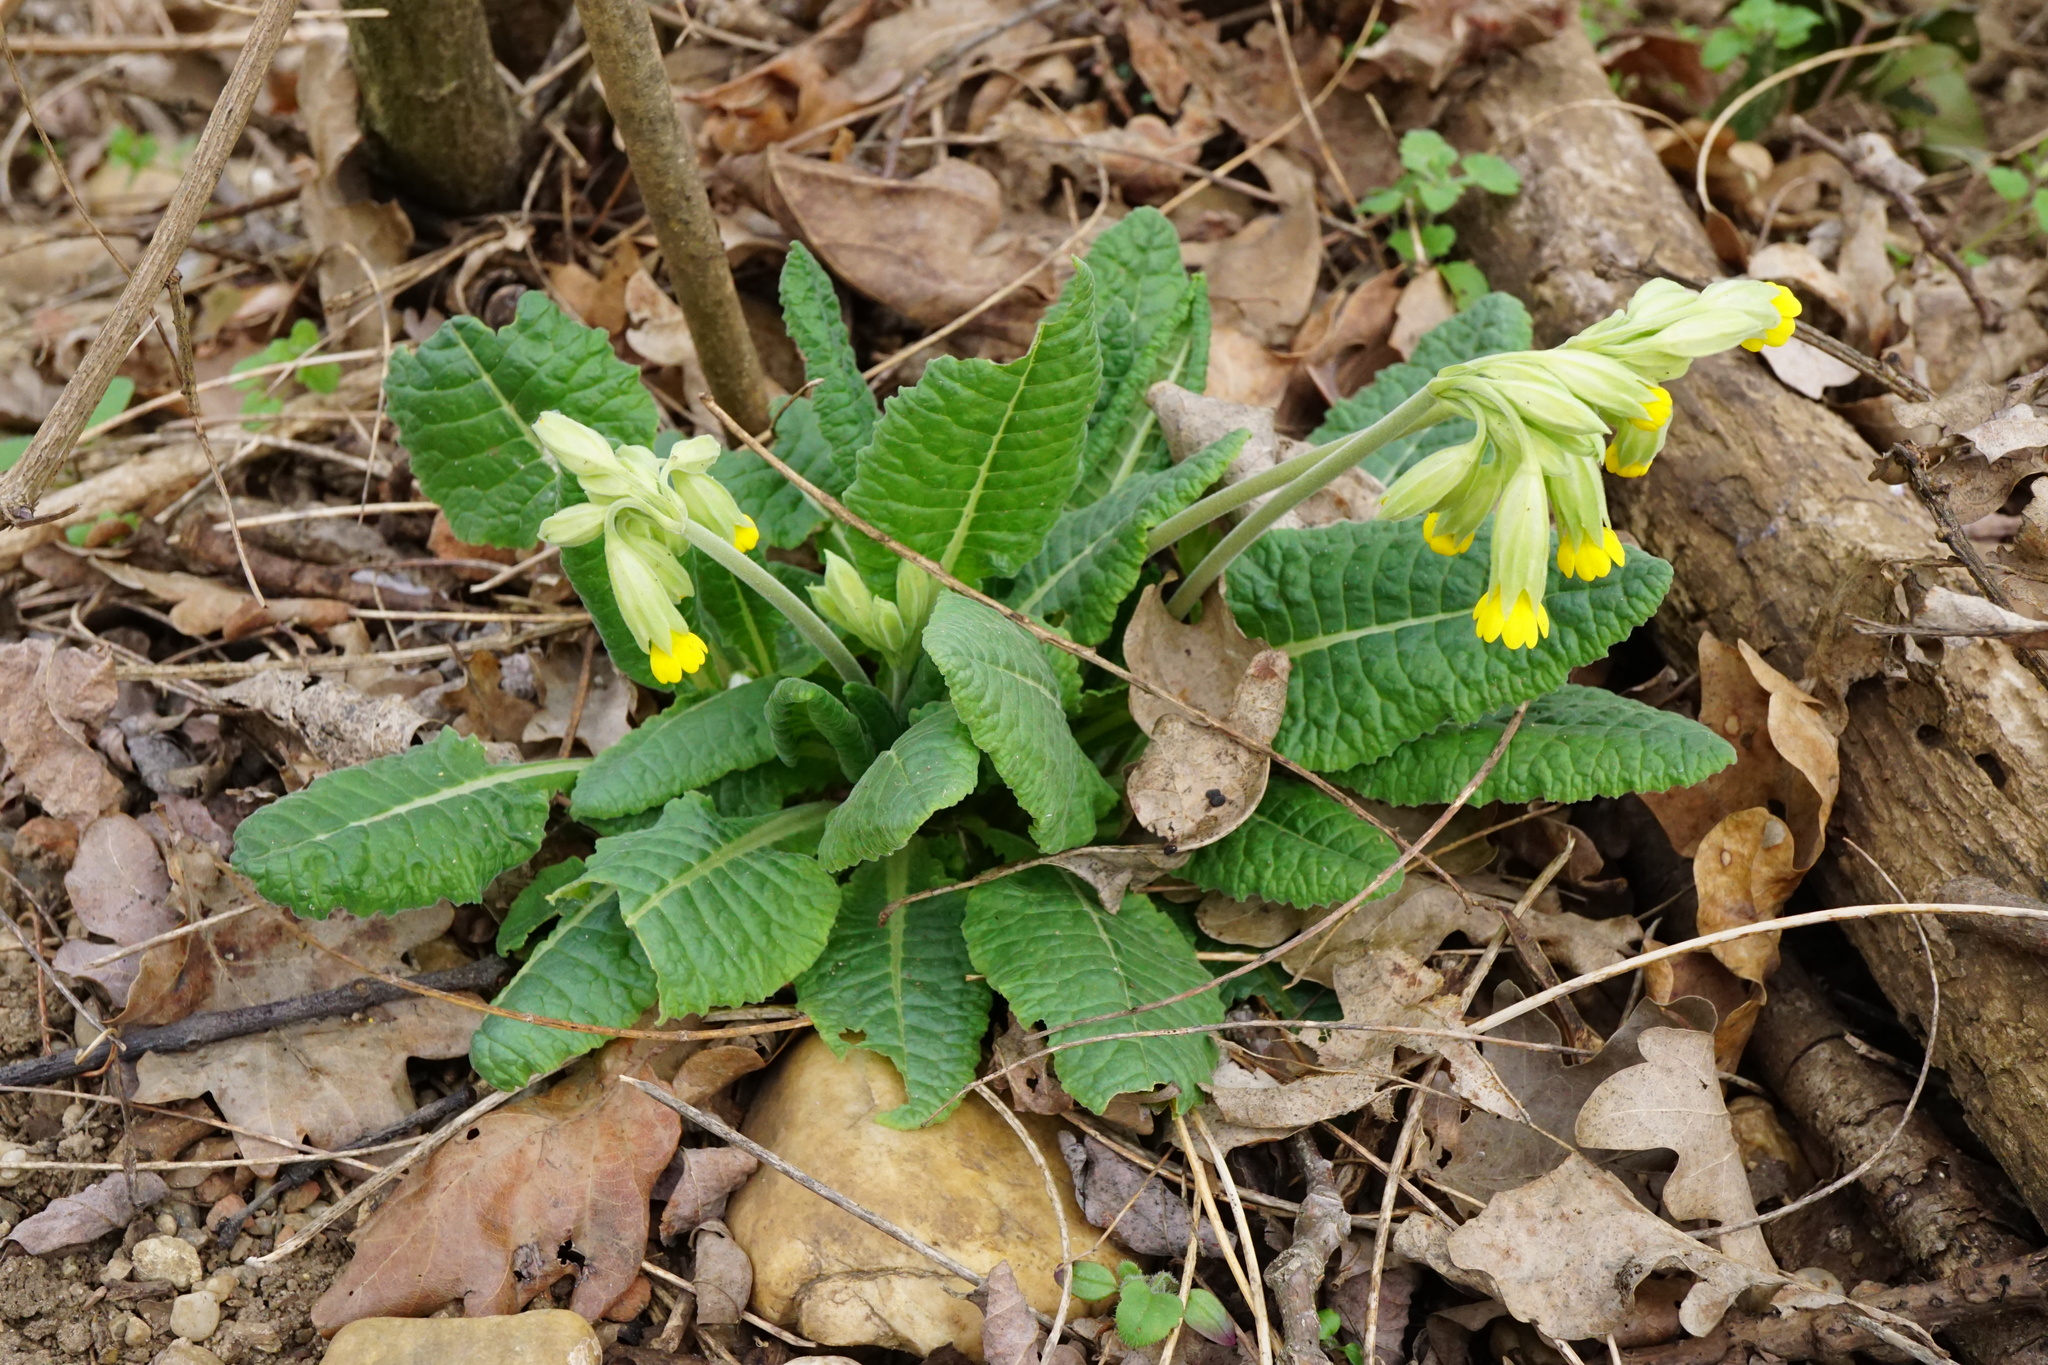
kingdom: Plantae
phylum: Tracheophyta
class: Magnoliopsida
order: Ericales
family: Primulaceae
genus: Primula
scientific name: Primula veris
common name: Cowslip
